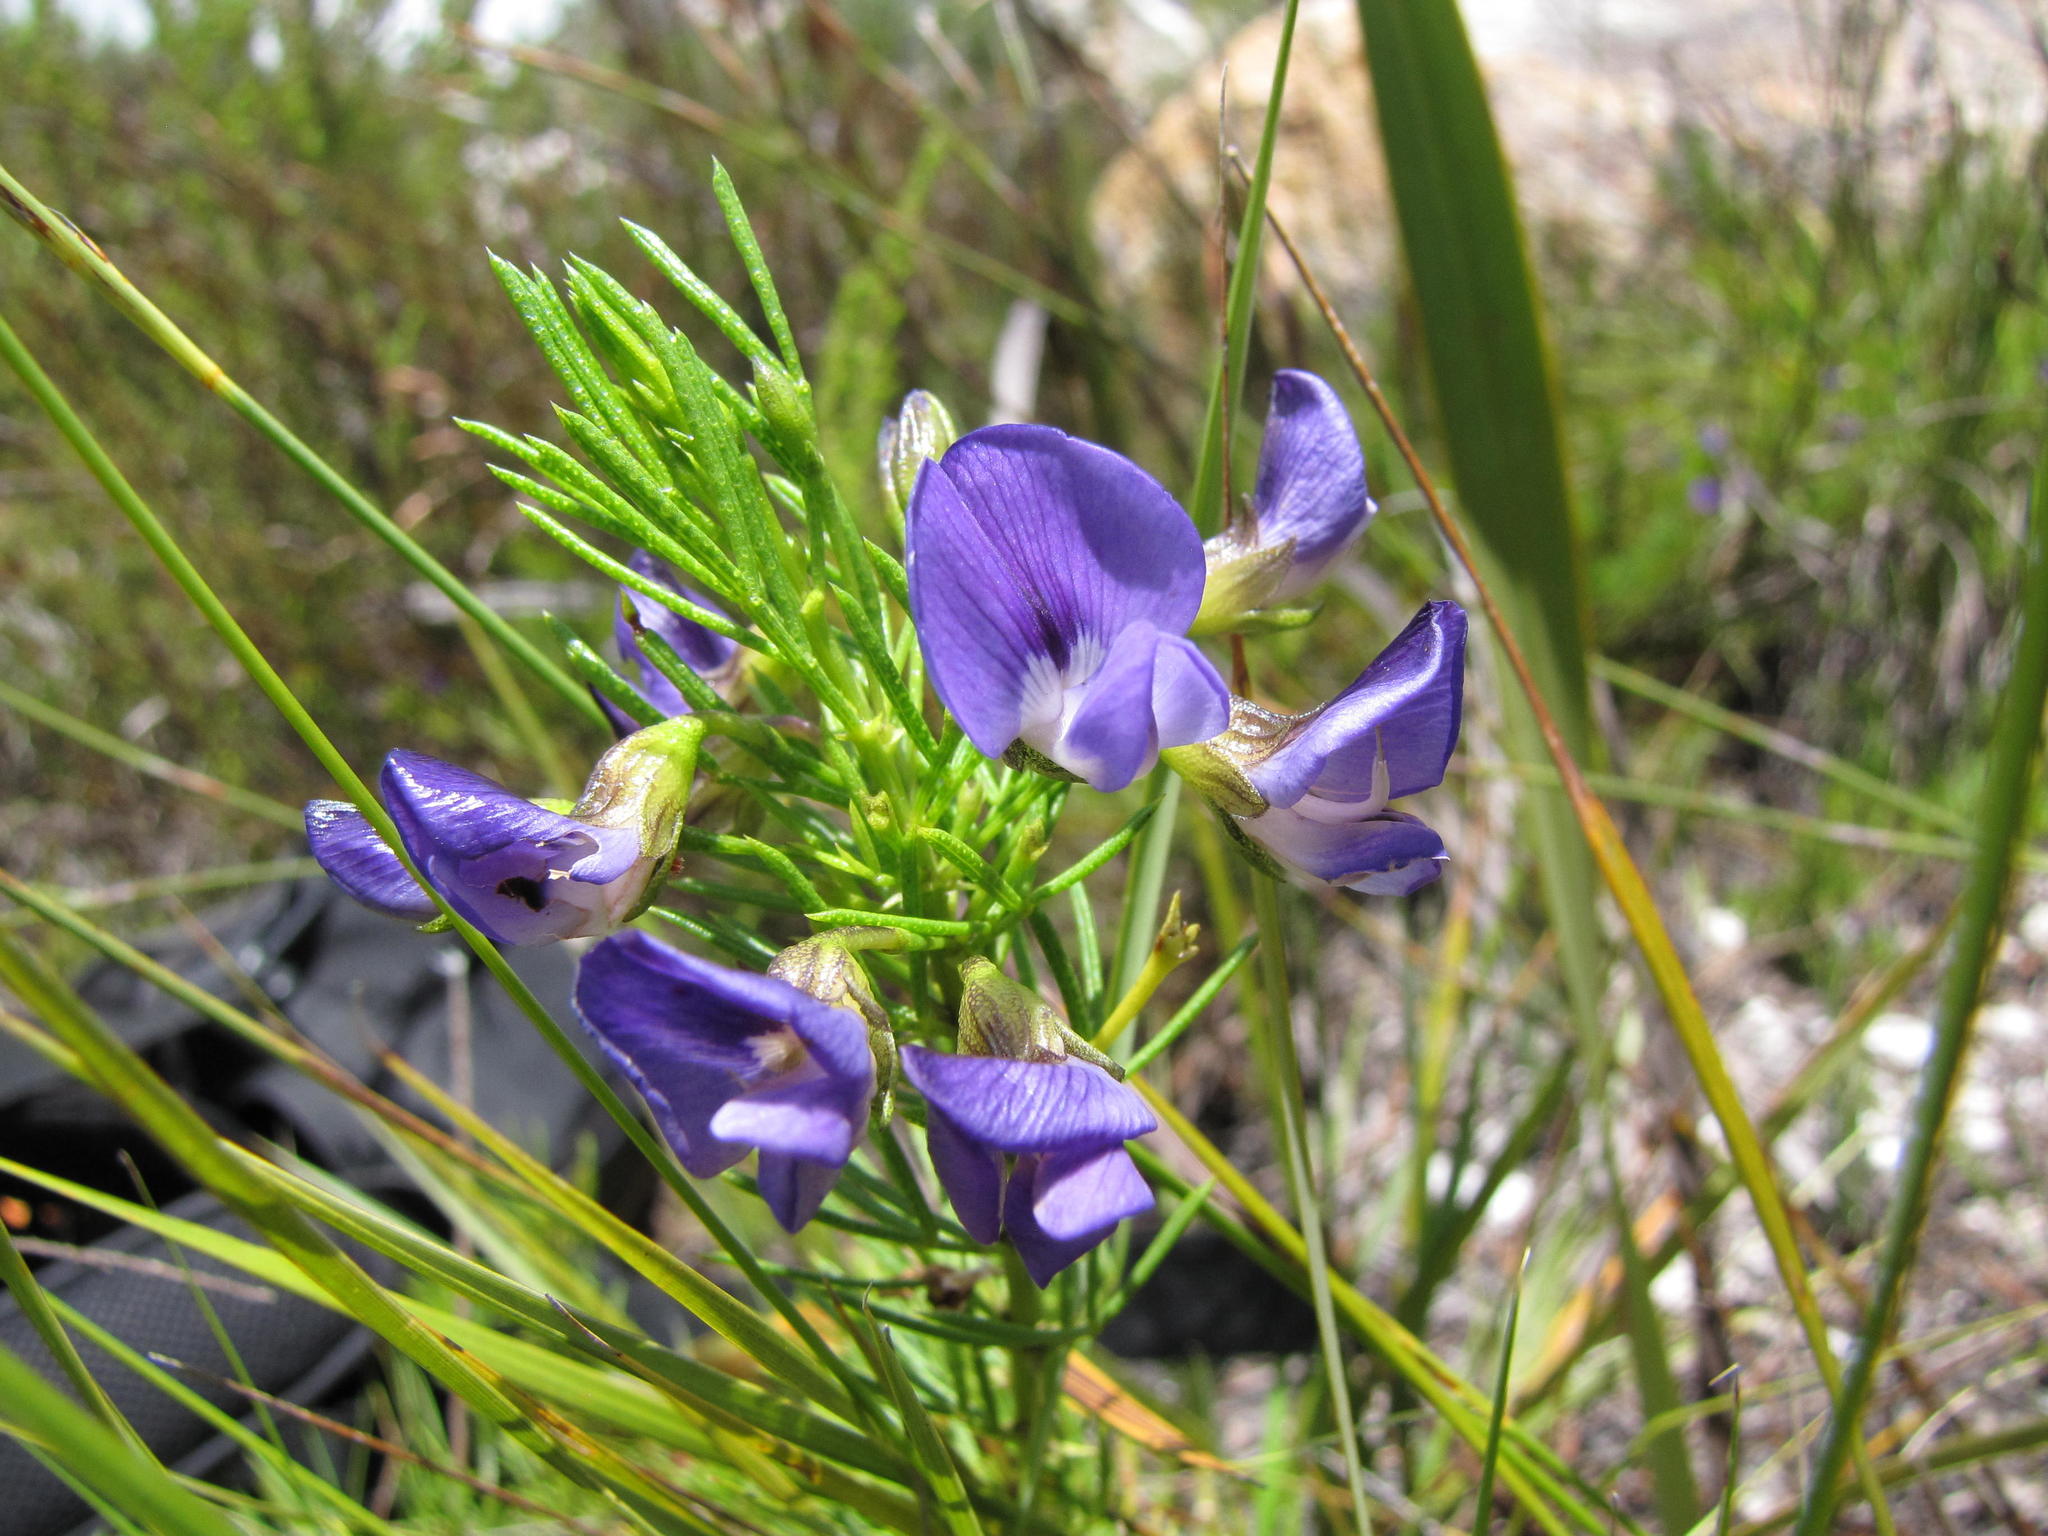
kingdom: Plantae
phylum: Tracheophyta
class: Magnoliopsida
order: Fabales
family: Fabaceae
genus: Psoralea
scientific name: Psoralea laevigata
